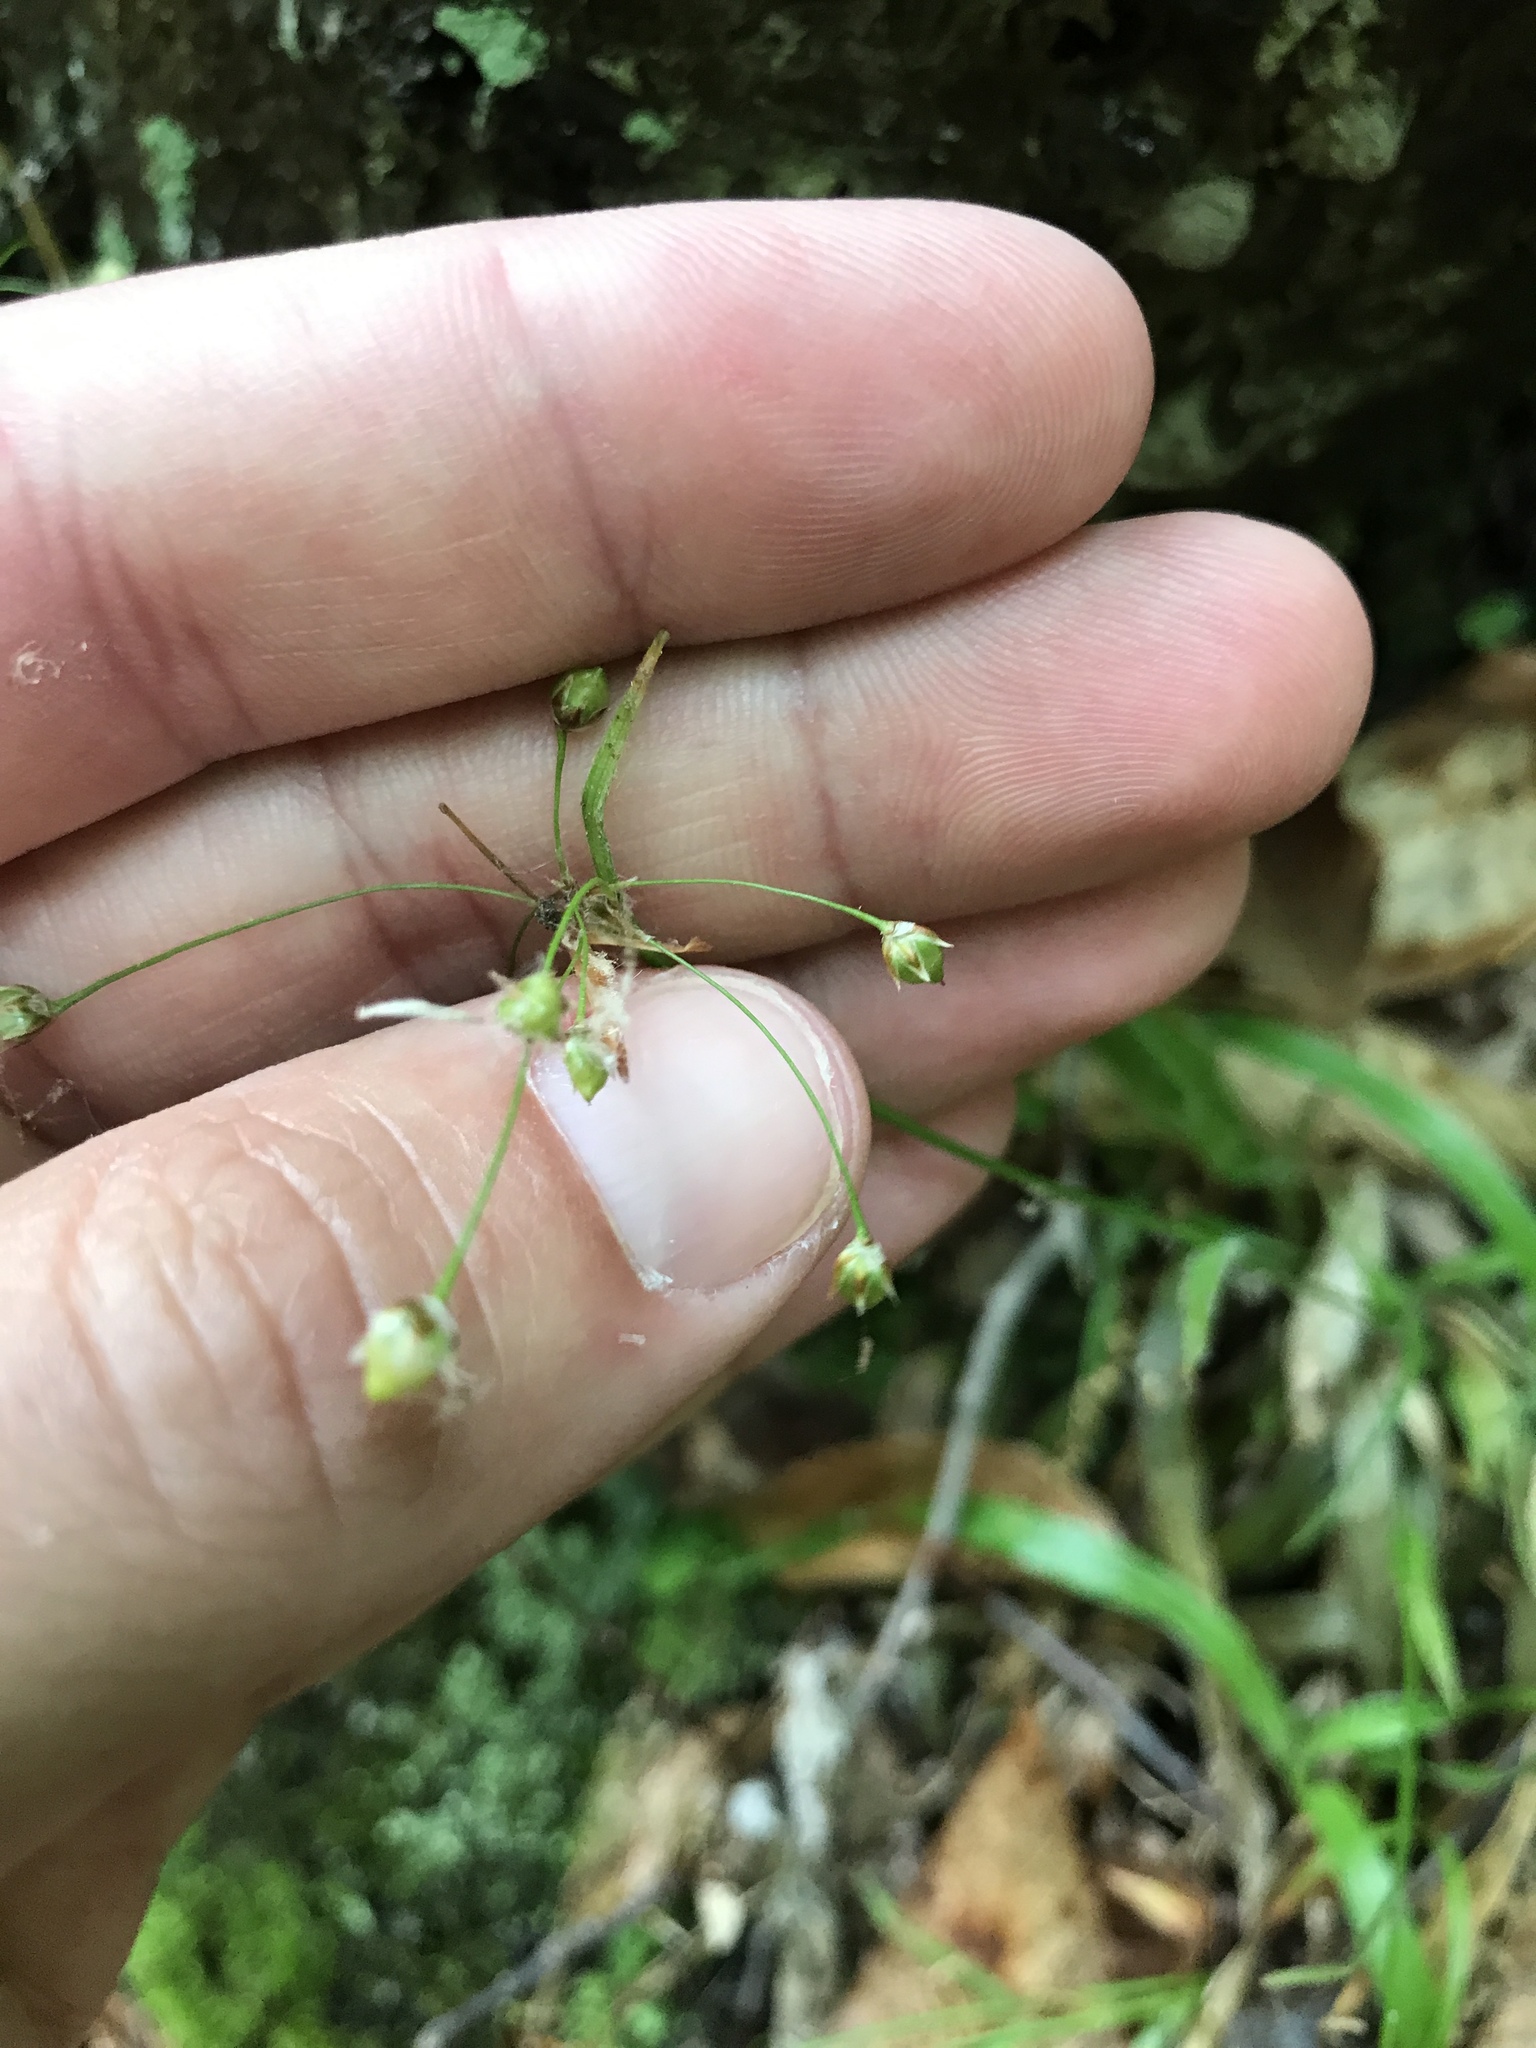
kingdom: Plantae
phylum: Tracheophyta
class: Liliopsida
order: Poales
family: Juncaceae
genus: Luzula
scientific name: Luzula acuminata
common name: Hairy woodrush
